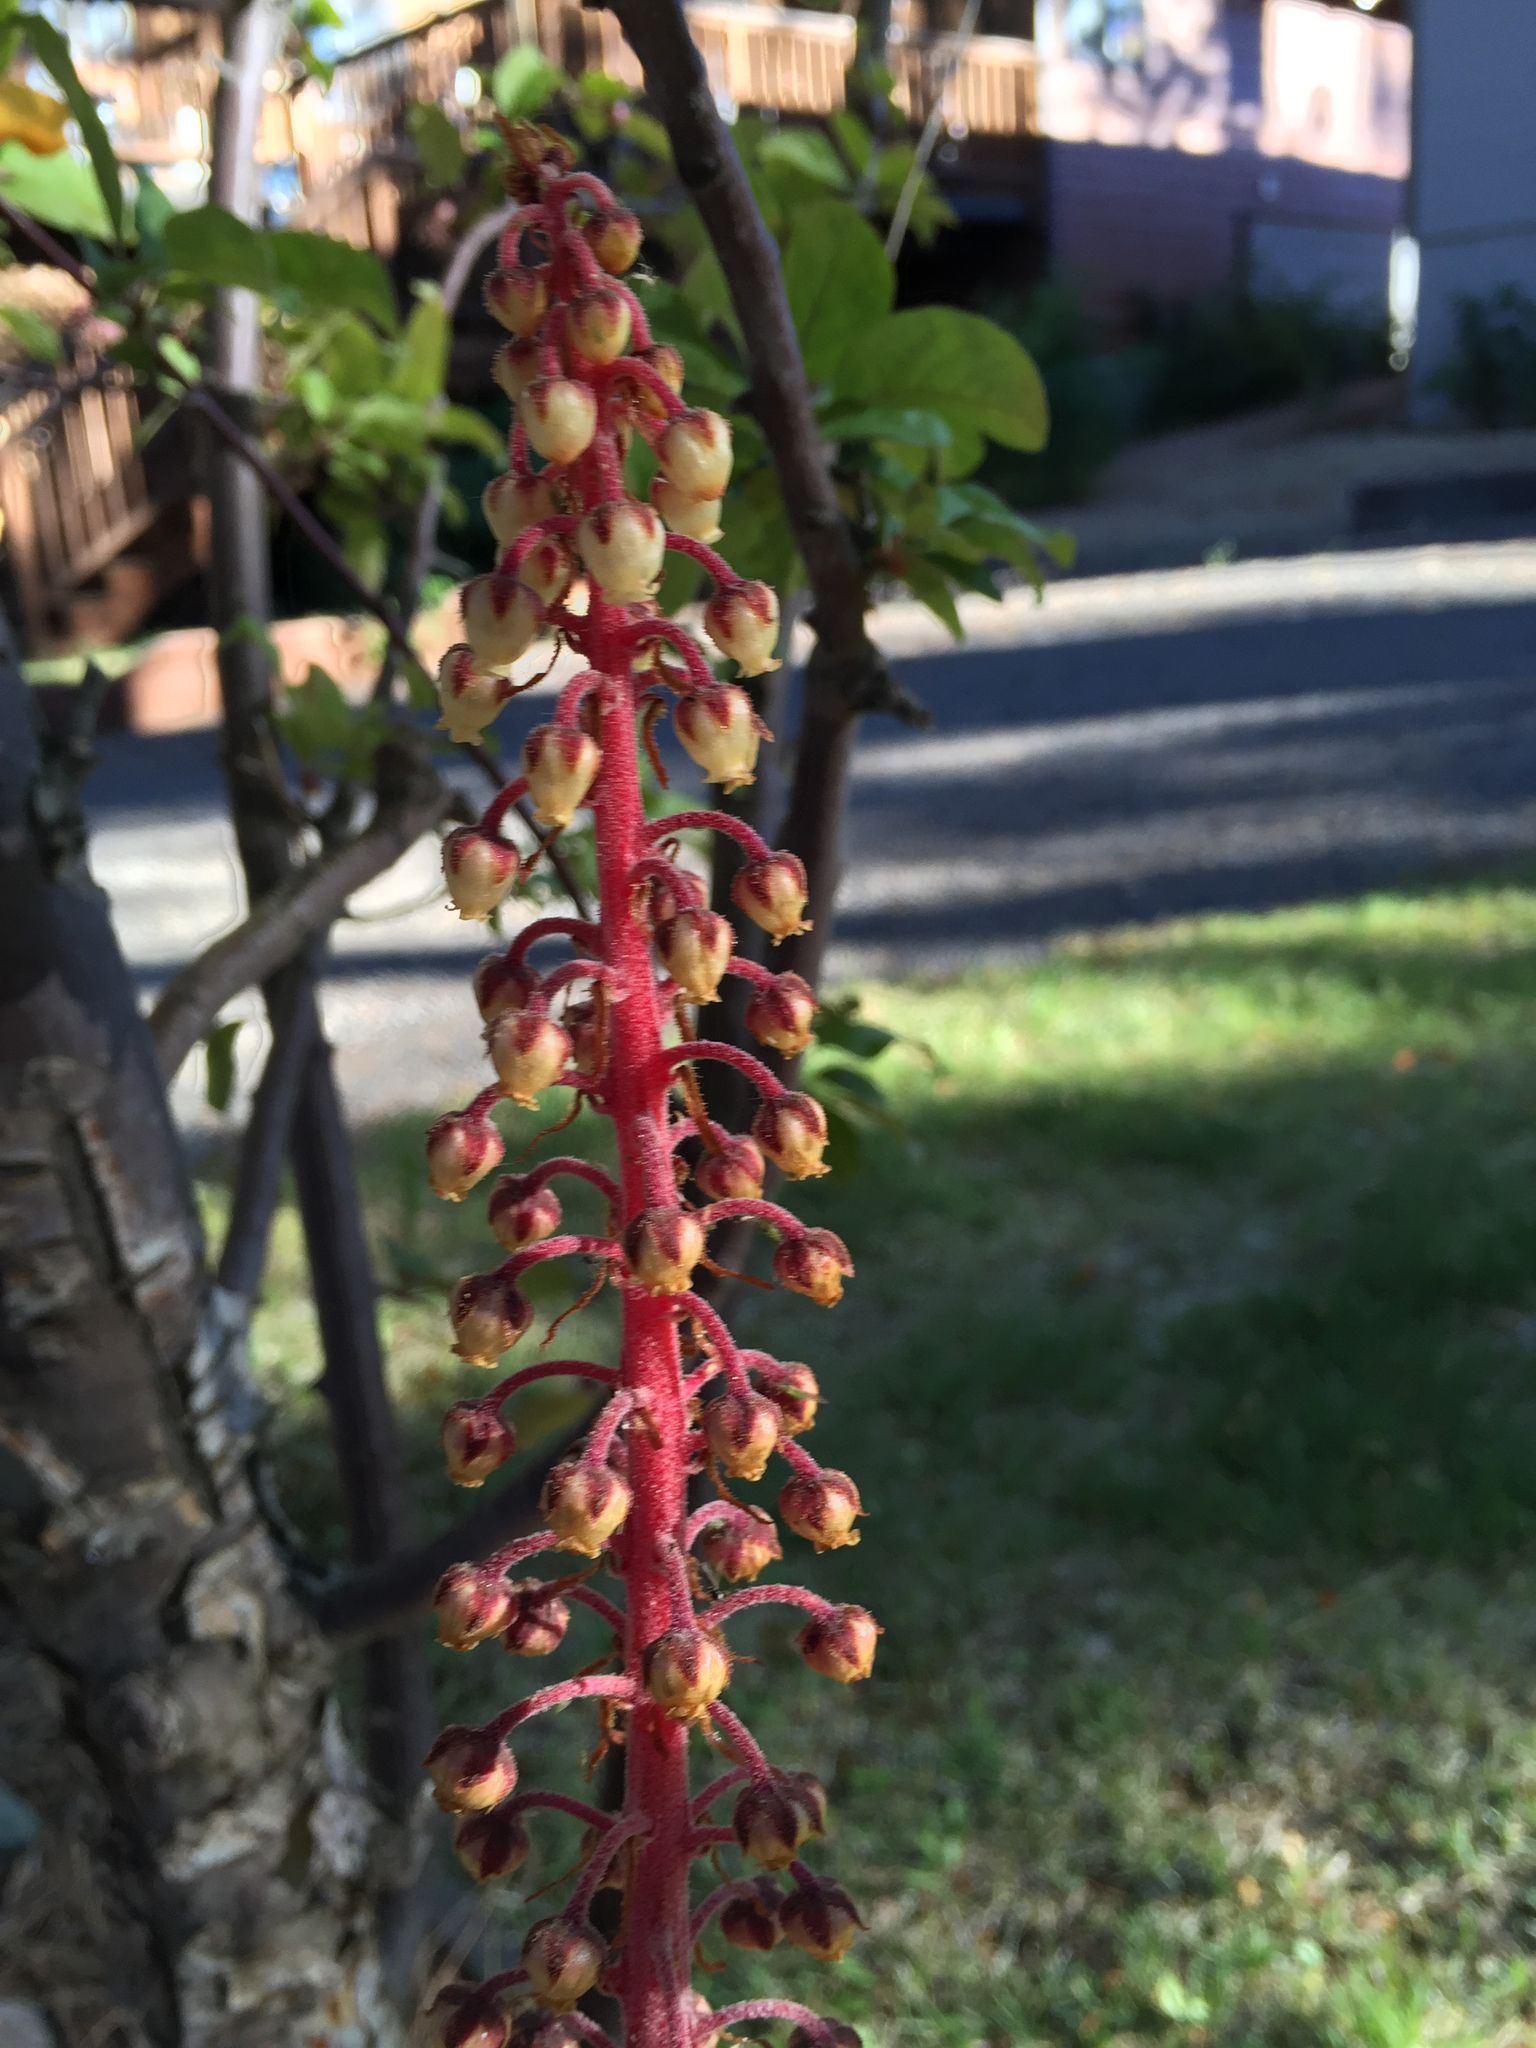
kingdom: Plantae
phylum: Tracheophyta
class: Magnoliopsida
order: Ericales
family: Ericaceae
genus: Pterospora
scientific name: Pterospora andromedea
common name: Giant bird's-nest
